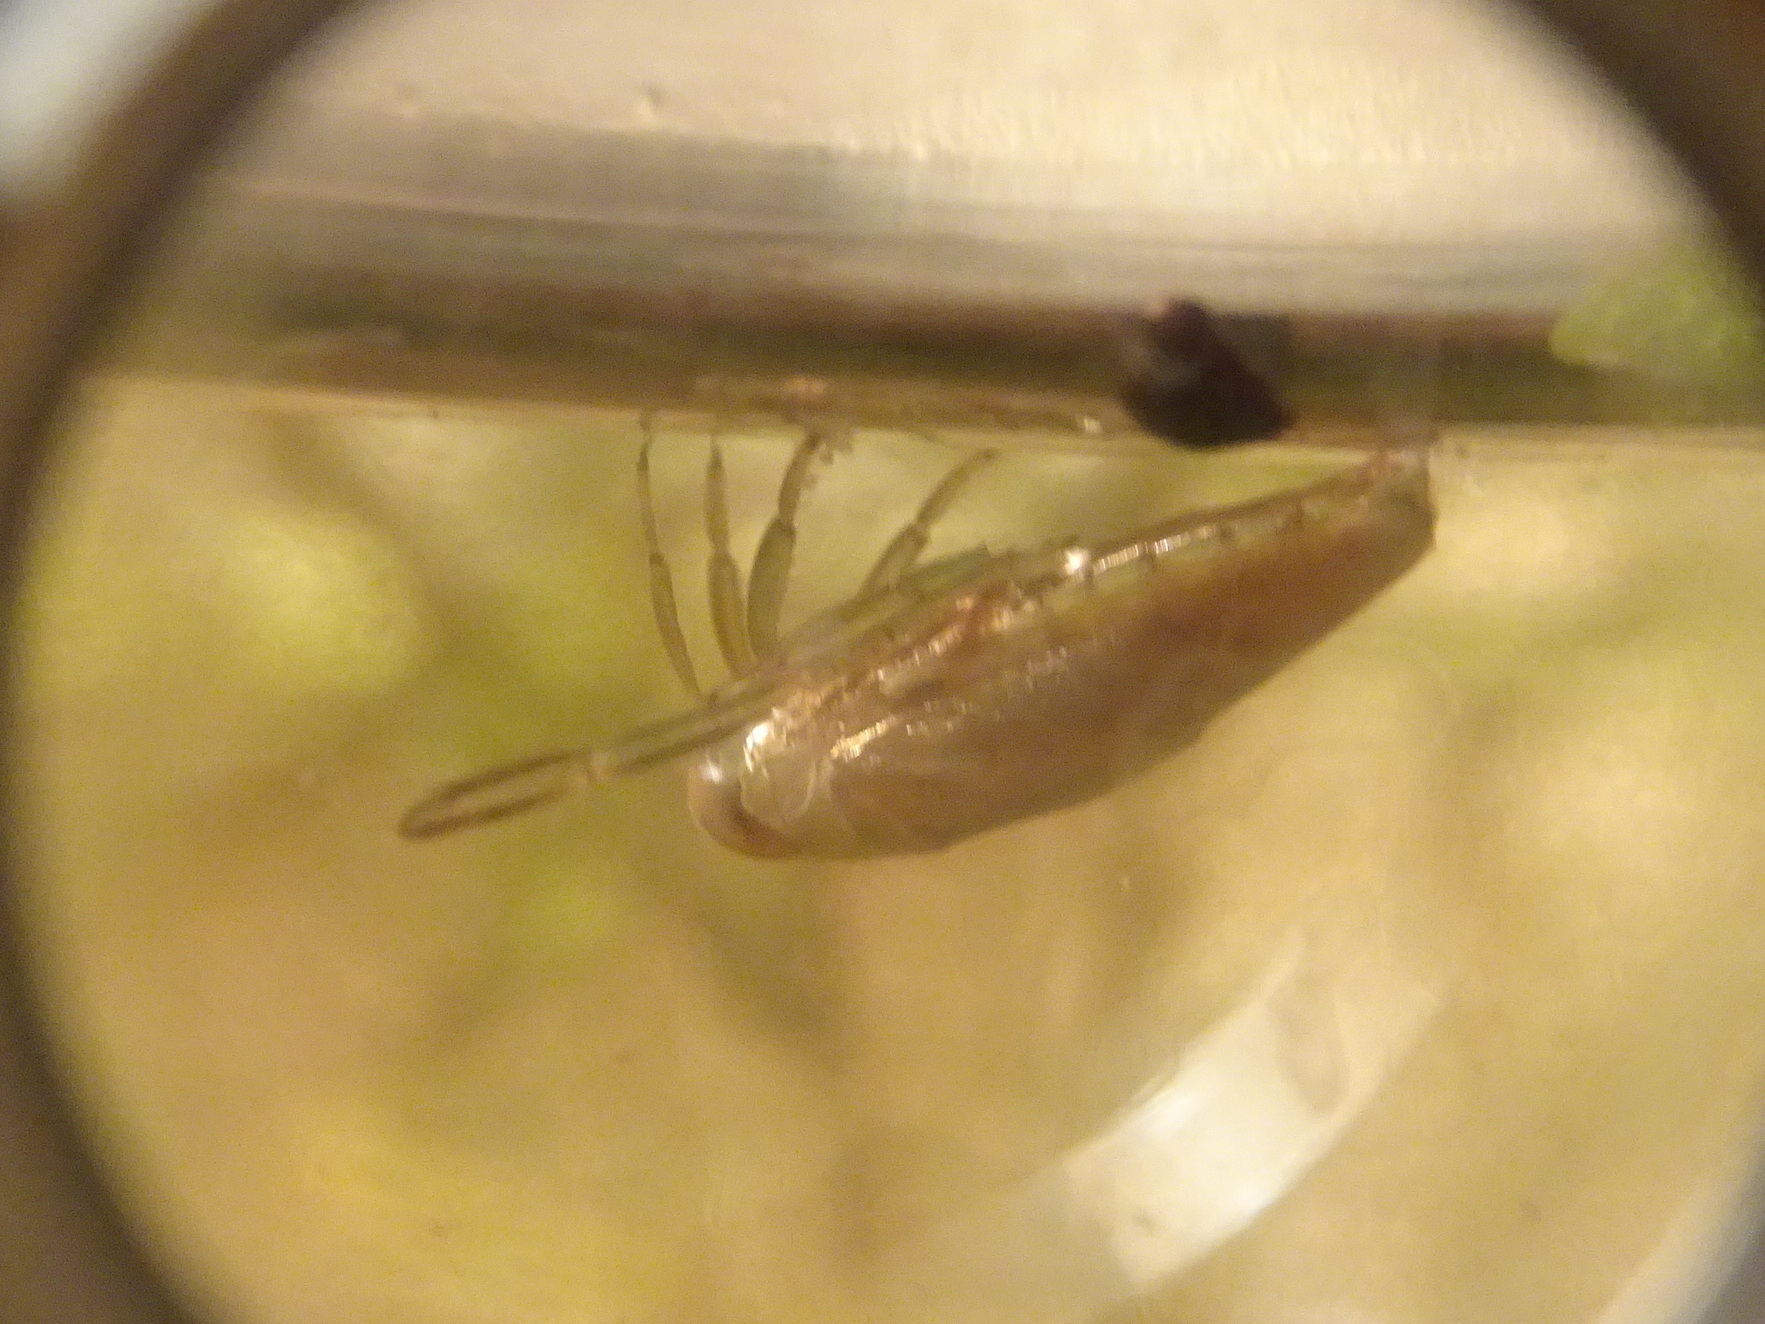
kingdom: Animalia
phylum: Arthropoda
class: Insecta
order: Hemiptera
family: Notonectidae
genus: Notonecta
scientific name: Notonecta
